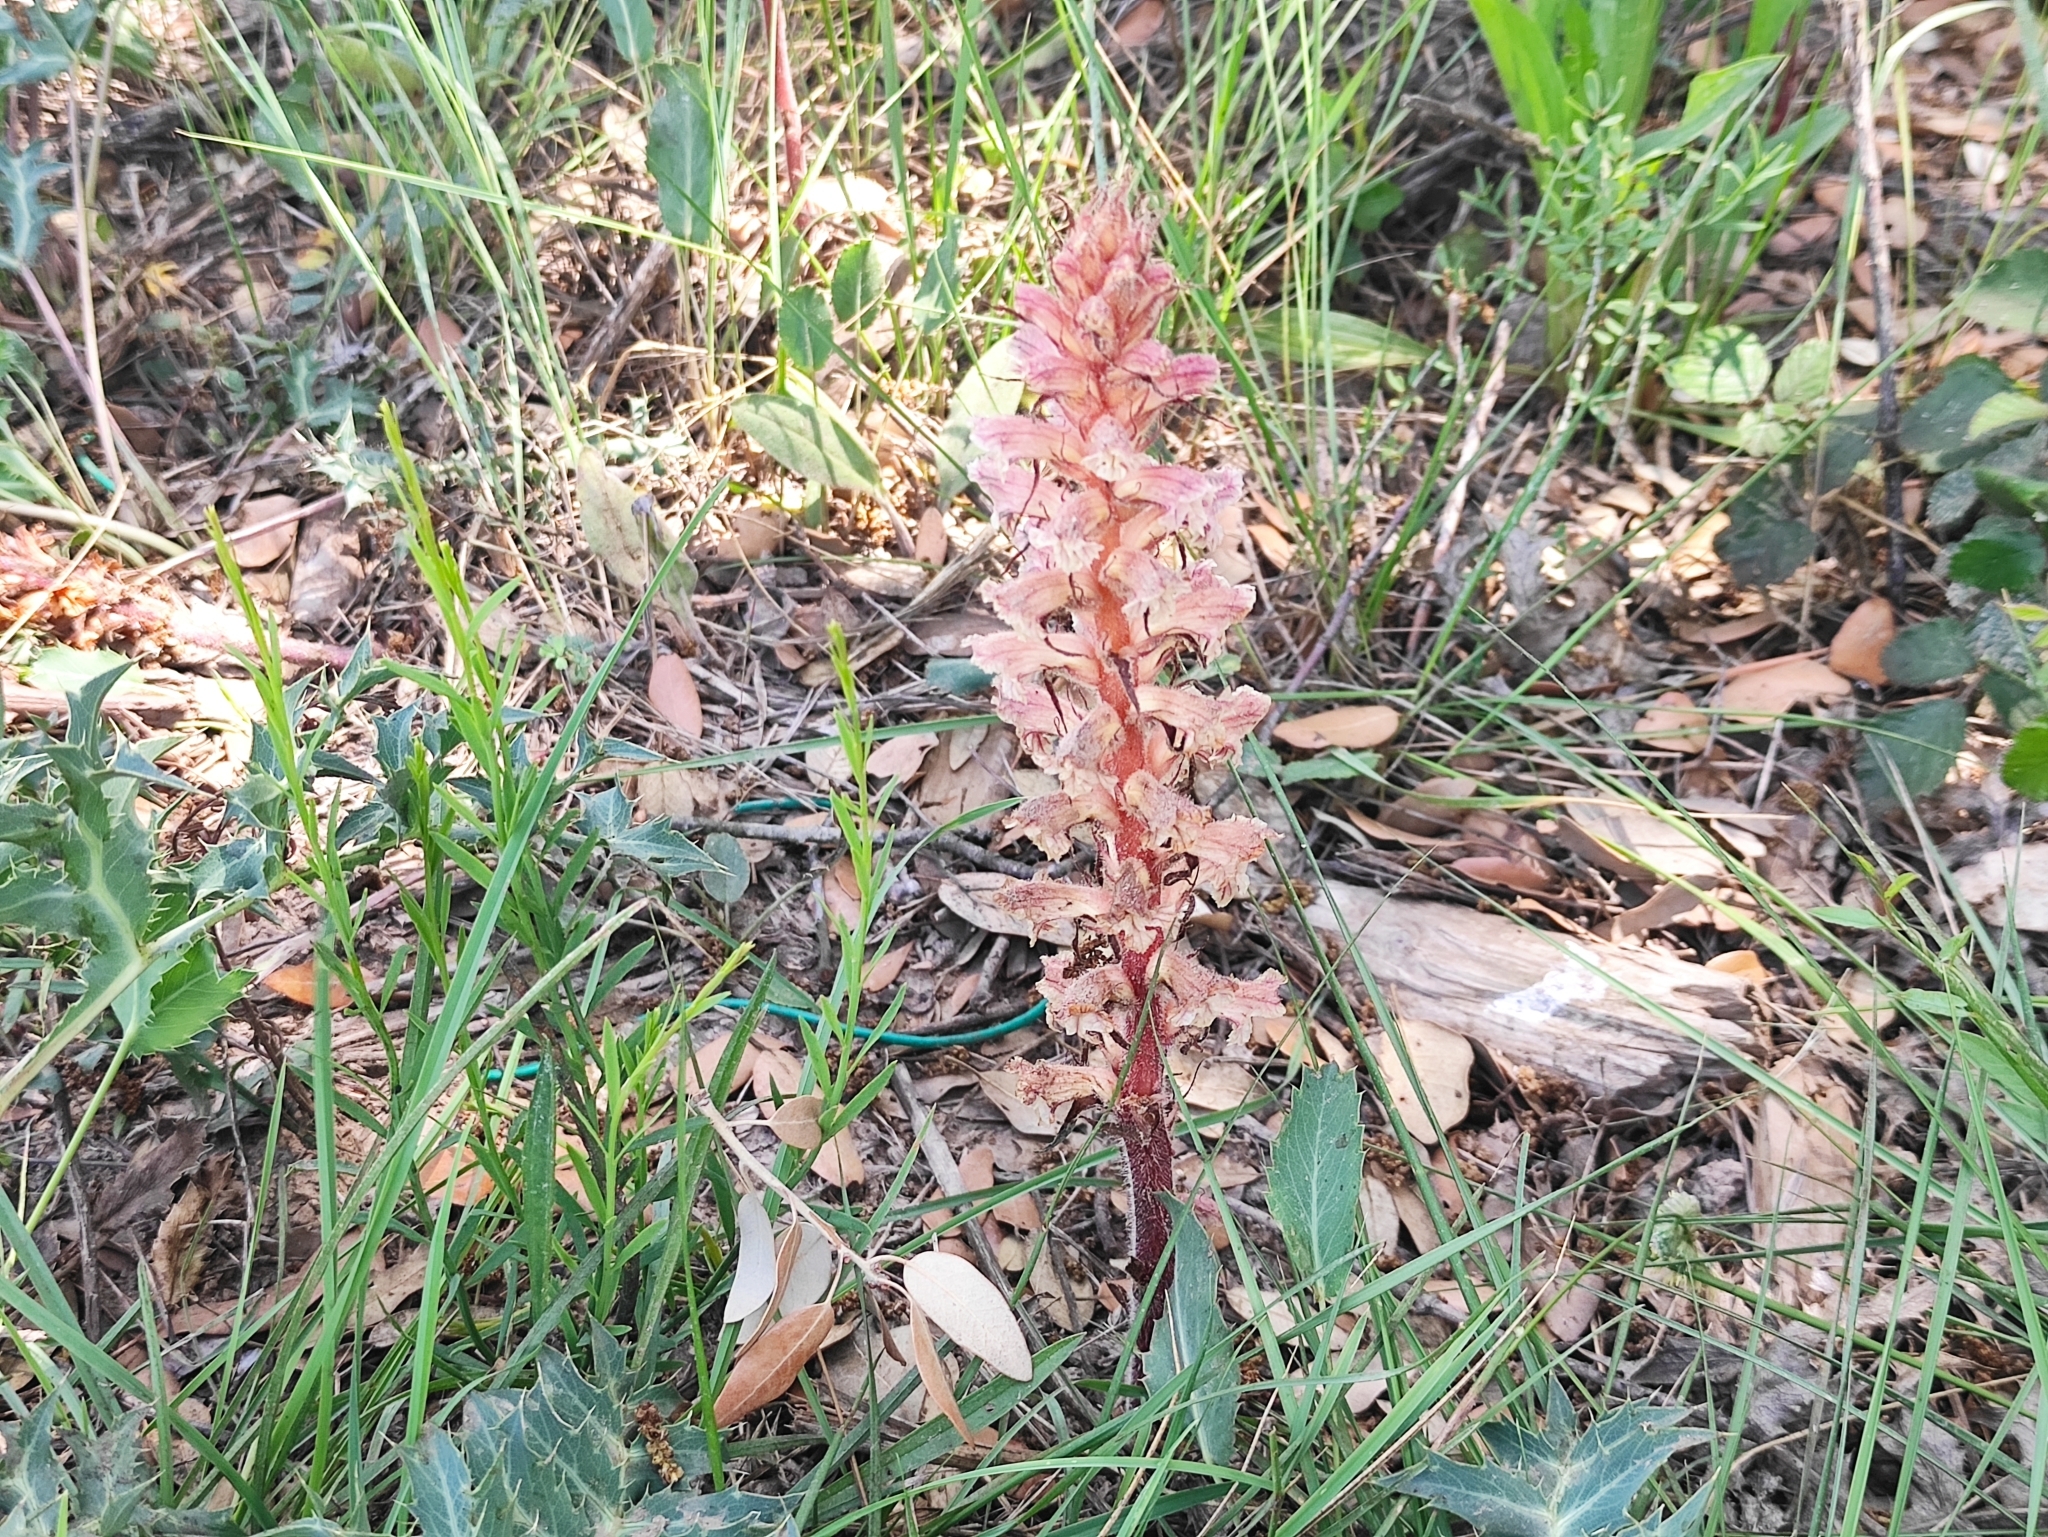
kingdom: Plantae
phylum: Tracheophyta
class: Magnoliopsida
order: Lamiales
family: Orobanchaceae
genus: Orobanche
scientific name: Orobanche amethystea
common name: Amethyst broomrape
